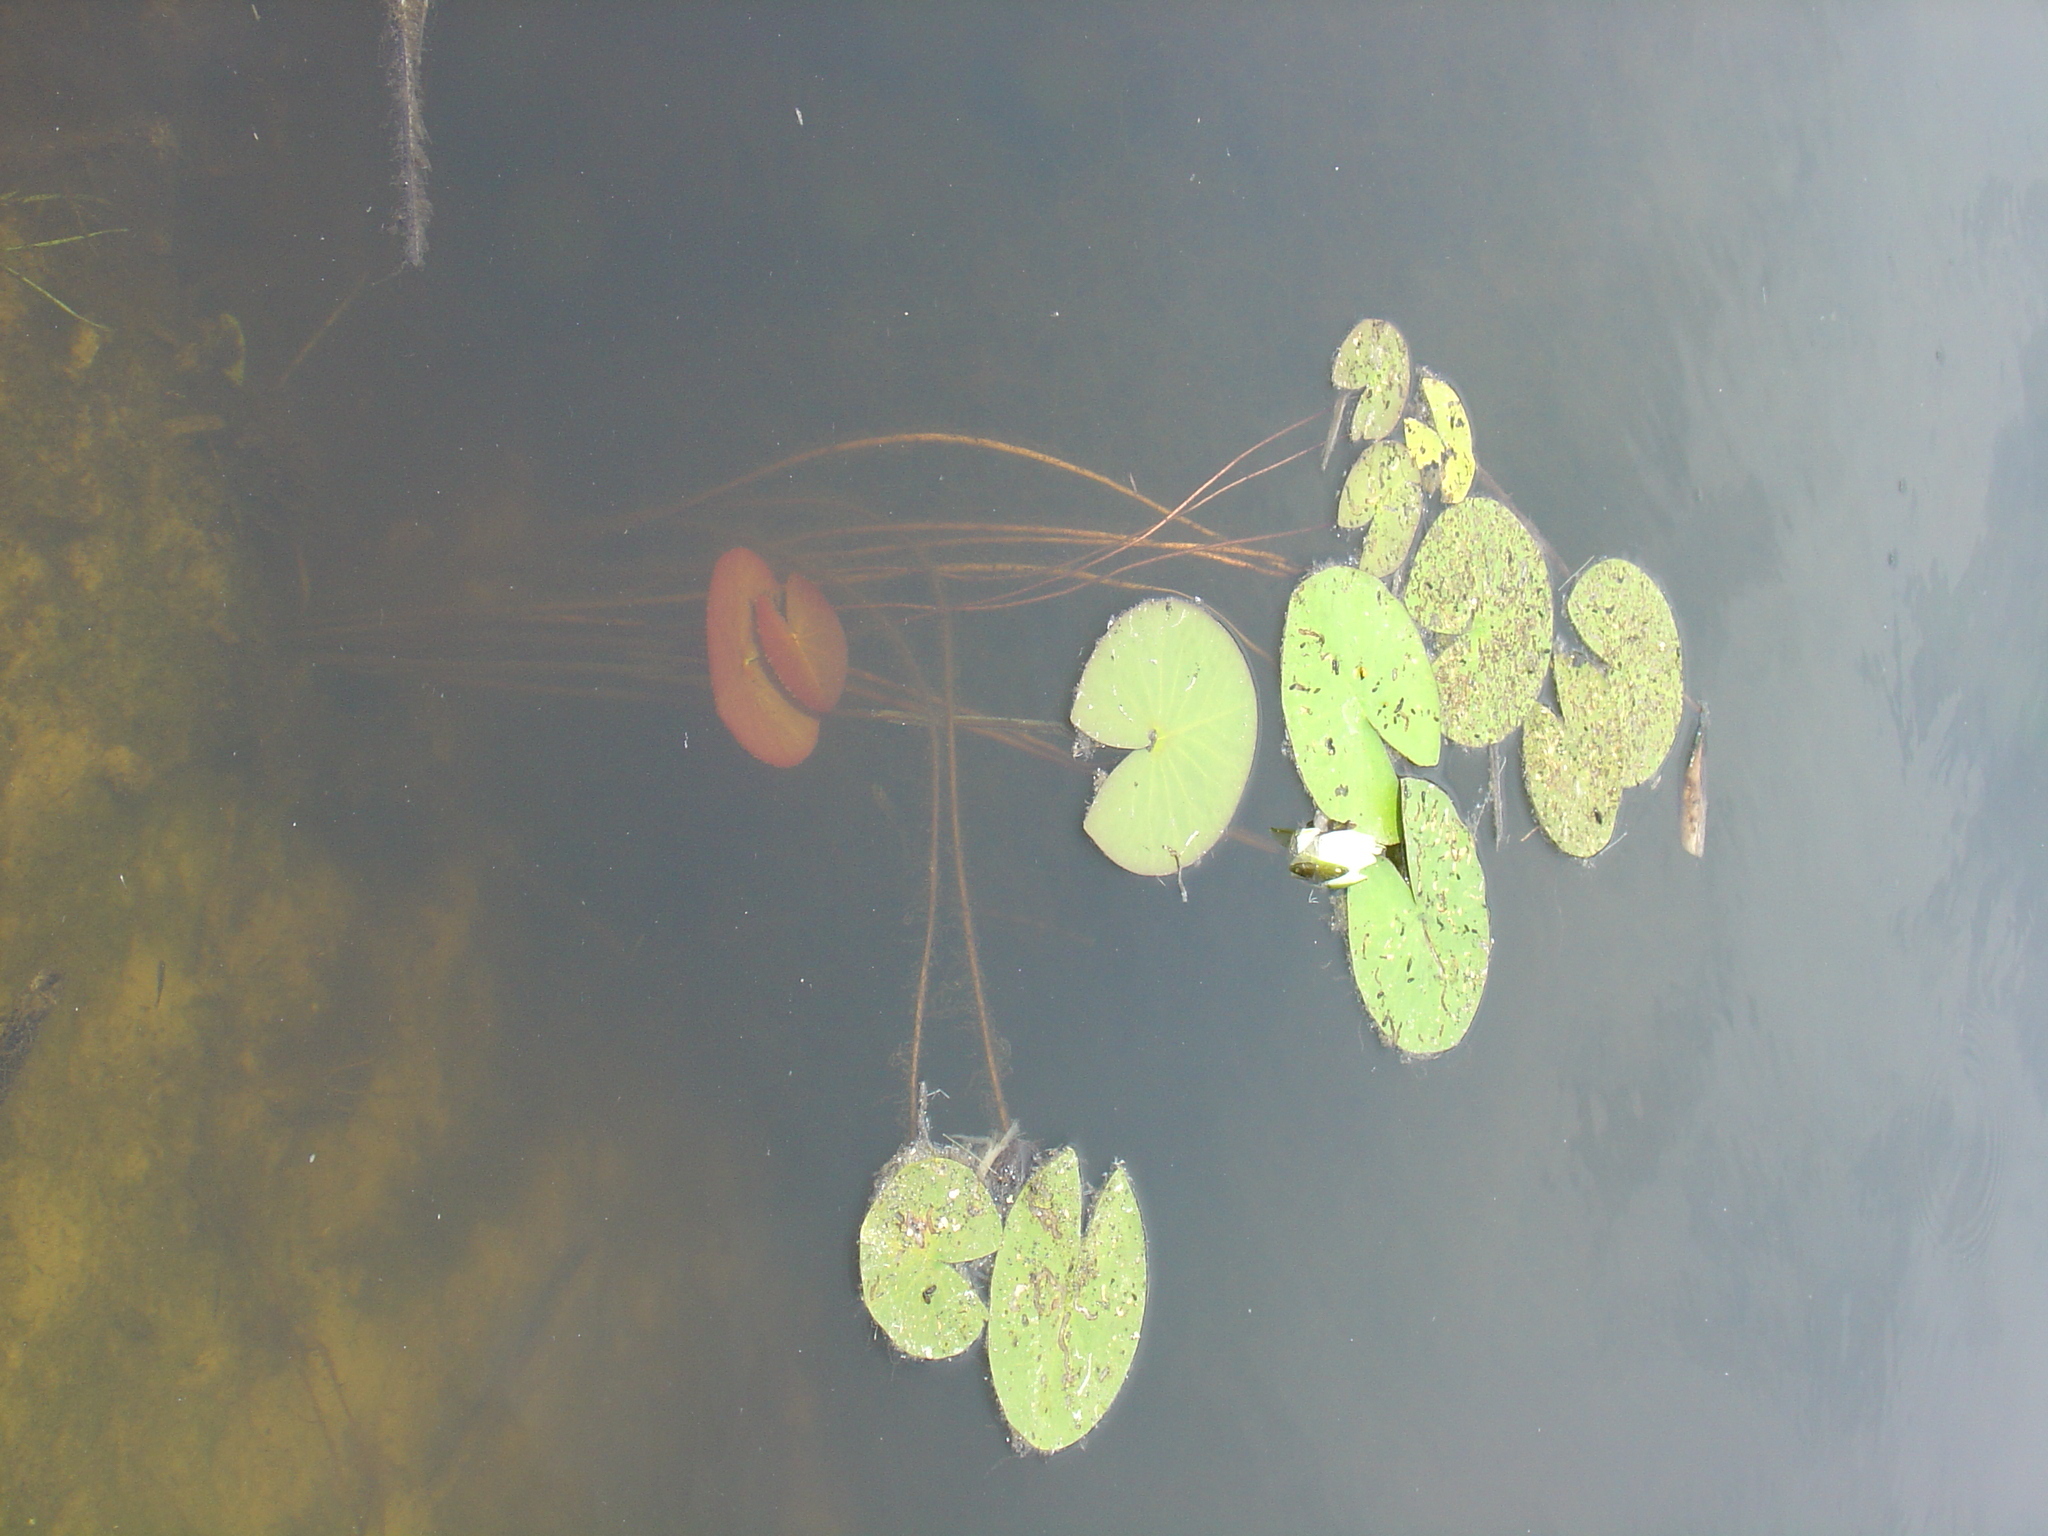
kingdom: Plantae
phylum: Tracheophyta
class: Magnoliopsida
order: Nymphaeales
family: Nymphaeaceae
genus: Nymphaea
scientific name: Nymphaea candida
